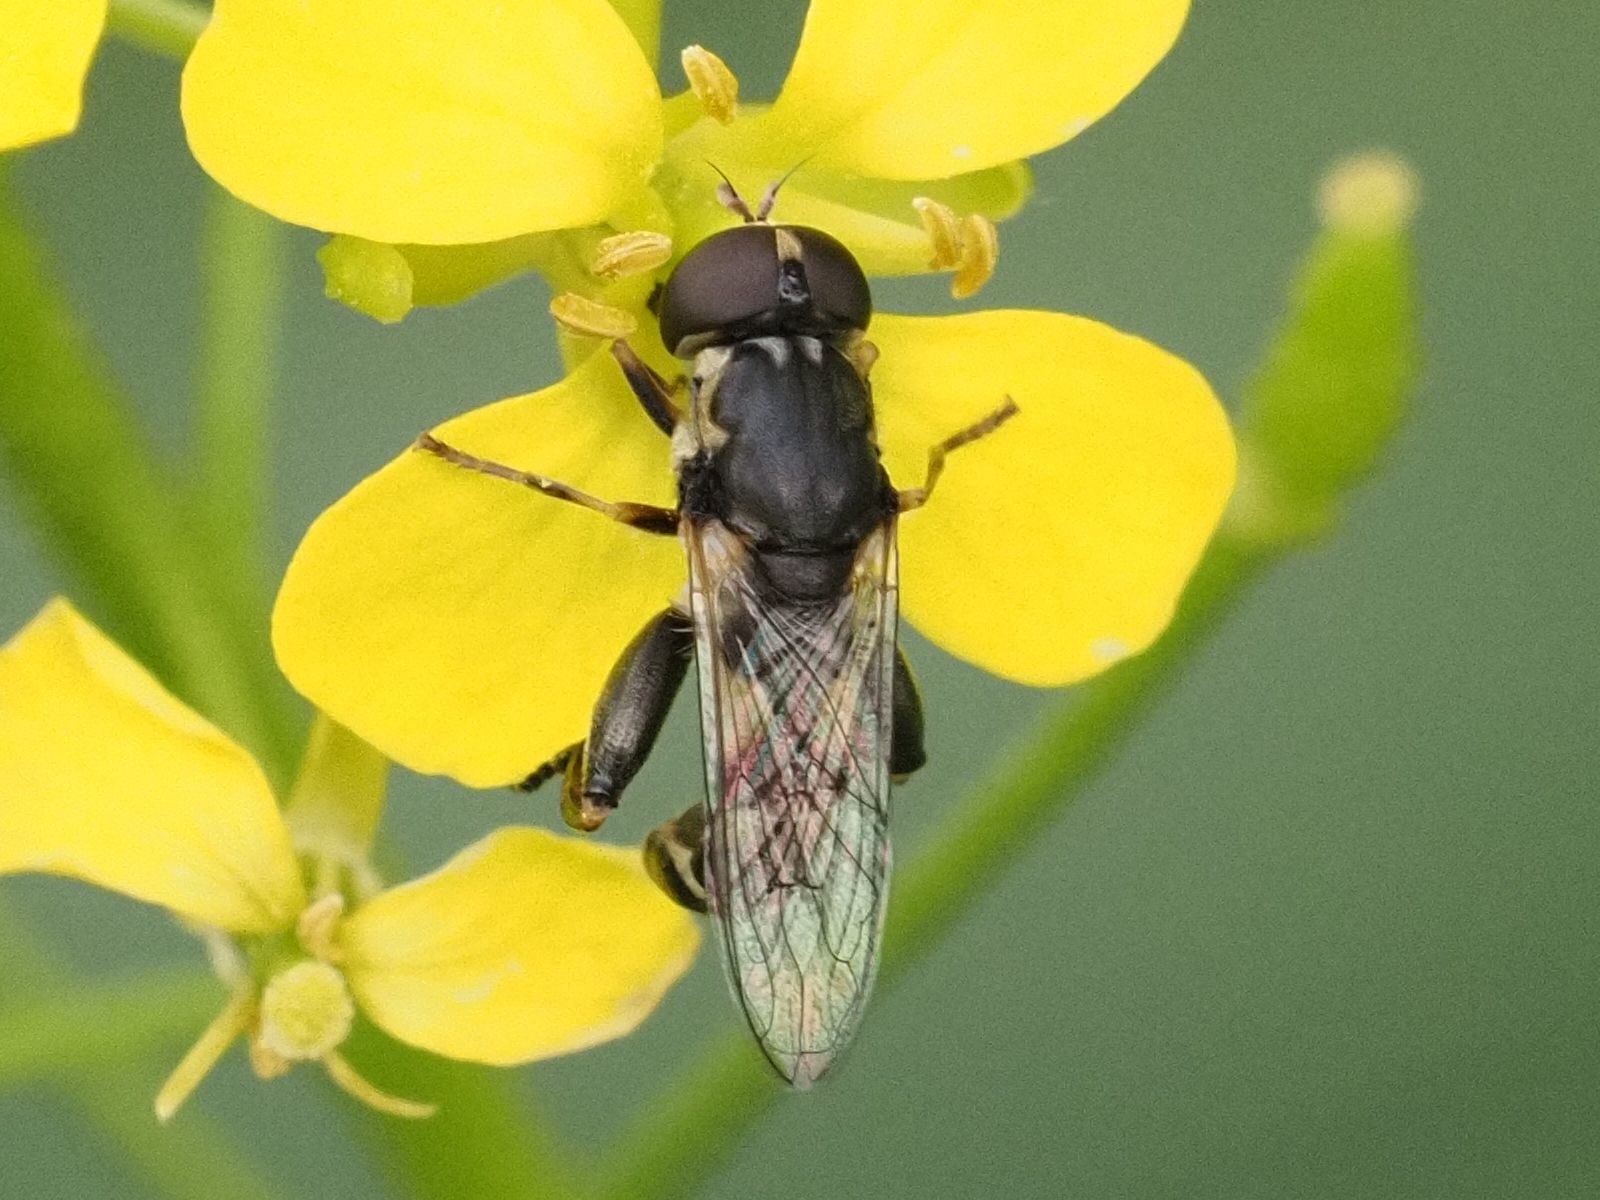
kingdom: Animalia
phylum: Arthropoda
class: Insecta
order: Diptera
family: Syrphidae
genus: Syritta
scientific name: Syritta pipiens
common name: Hover fly
